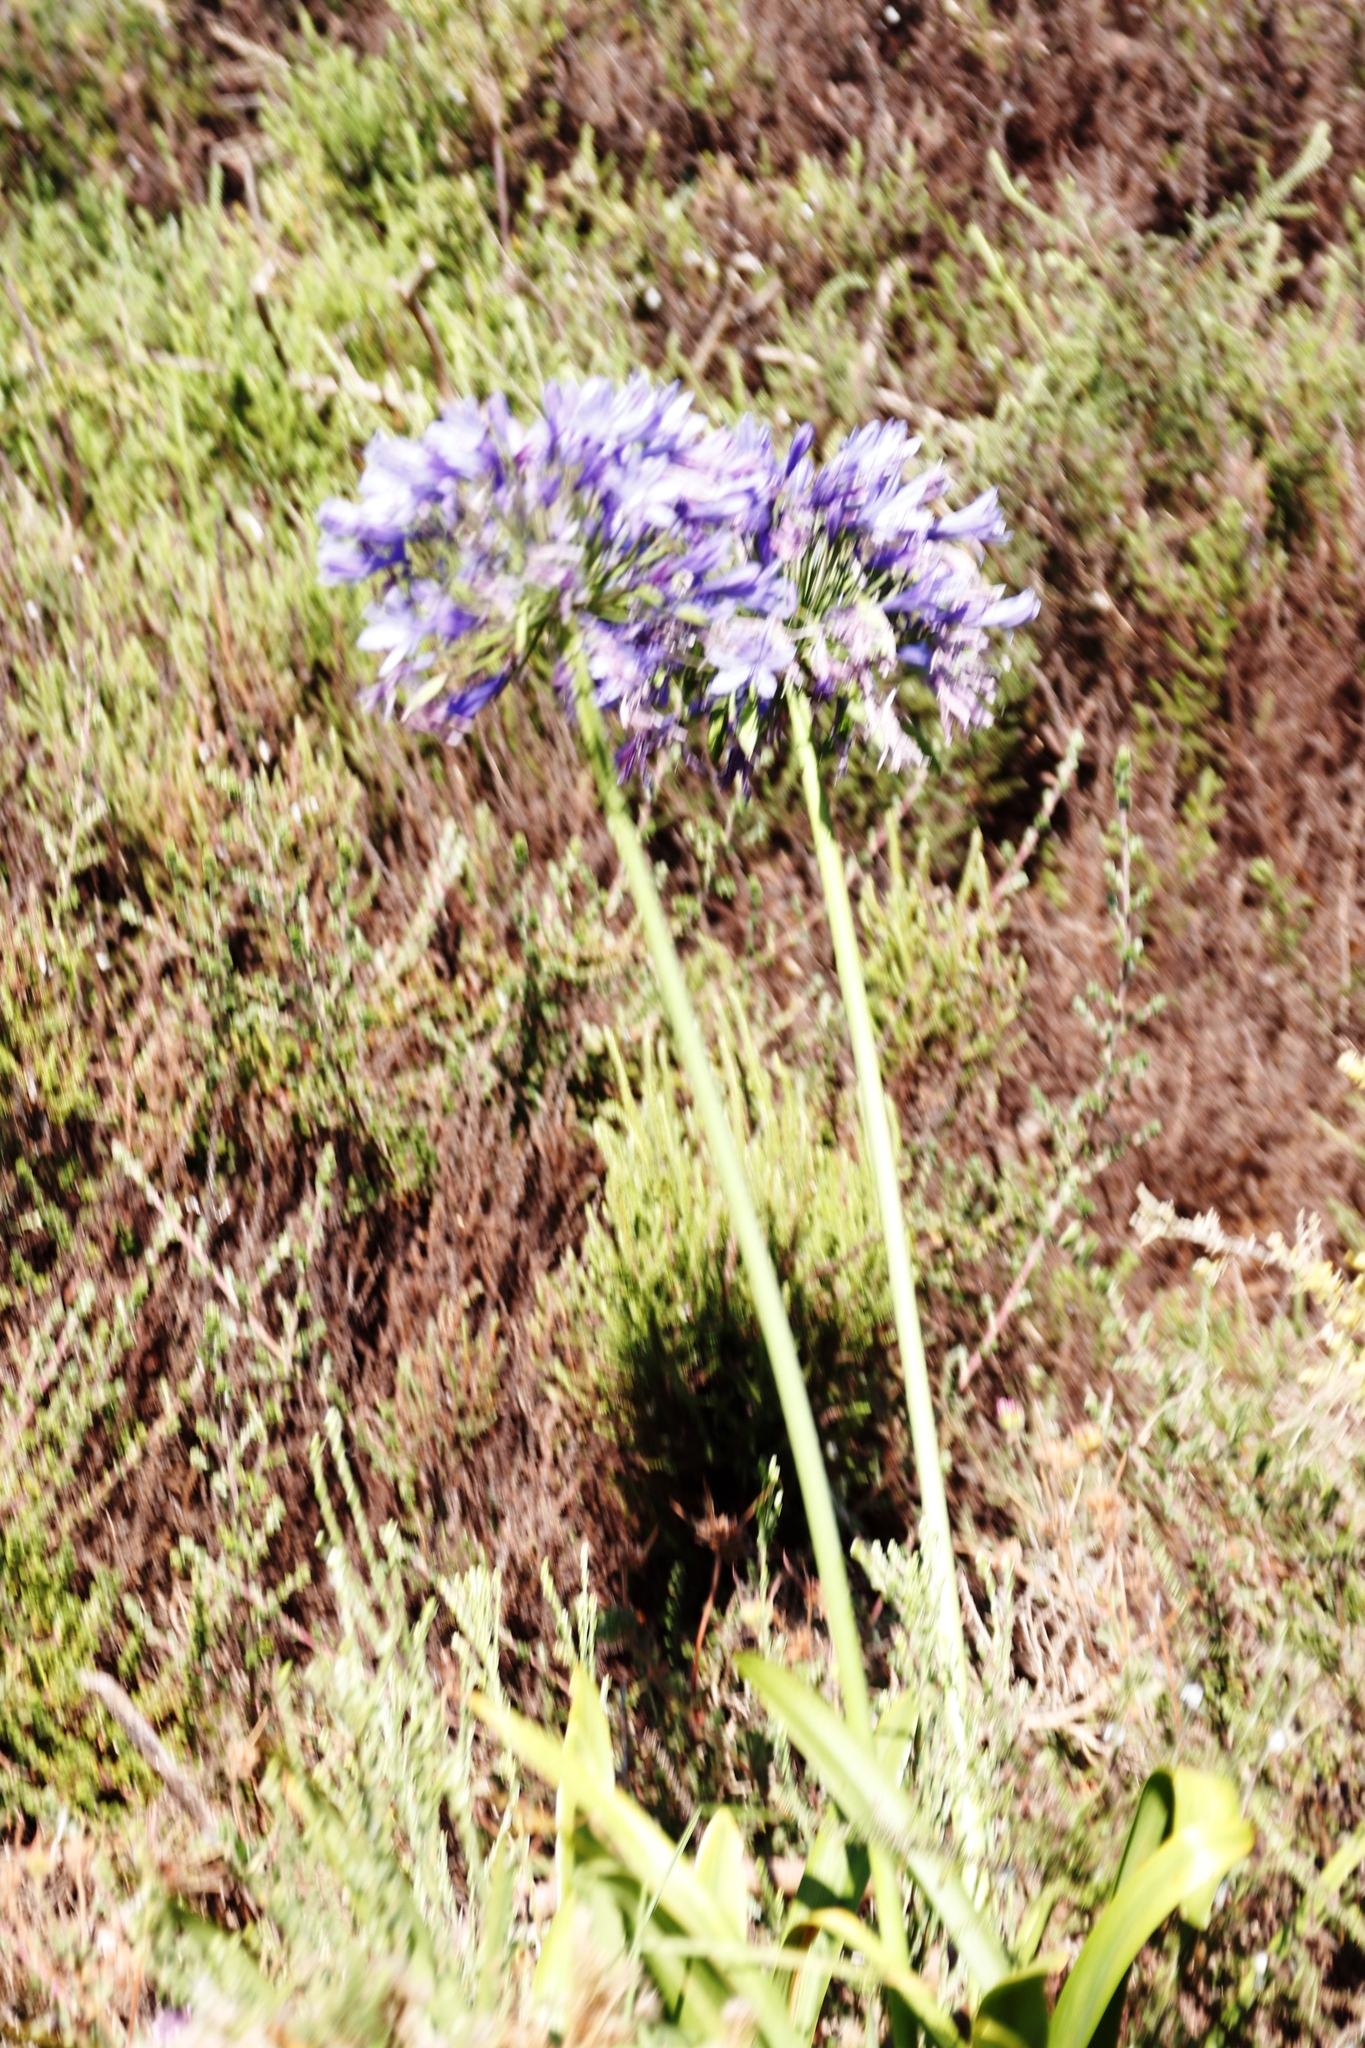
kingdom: Plantae
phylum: Tracheophyta
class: Liliopsida
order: Asparagales
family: Amaryllidaceae
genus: Agapanthus
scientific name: Agapanthus praecox
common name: African-lily
